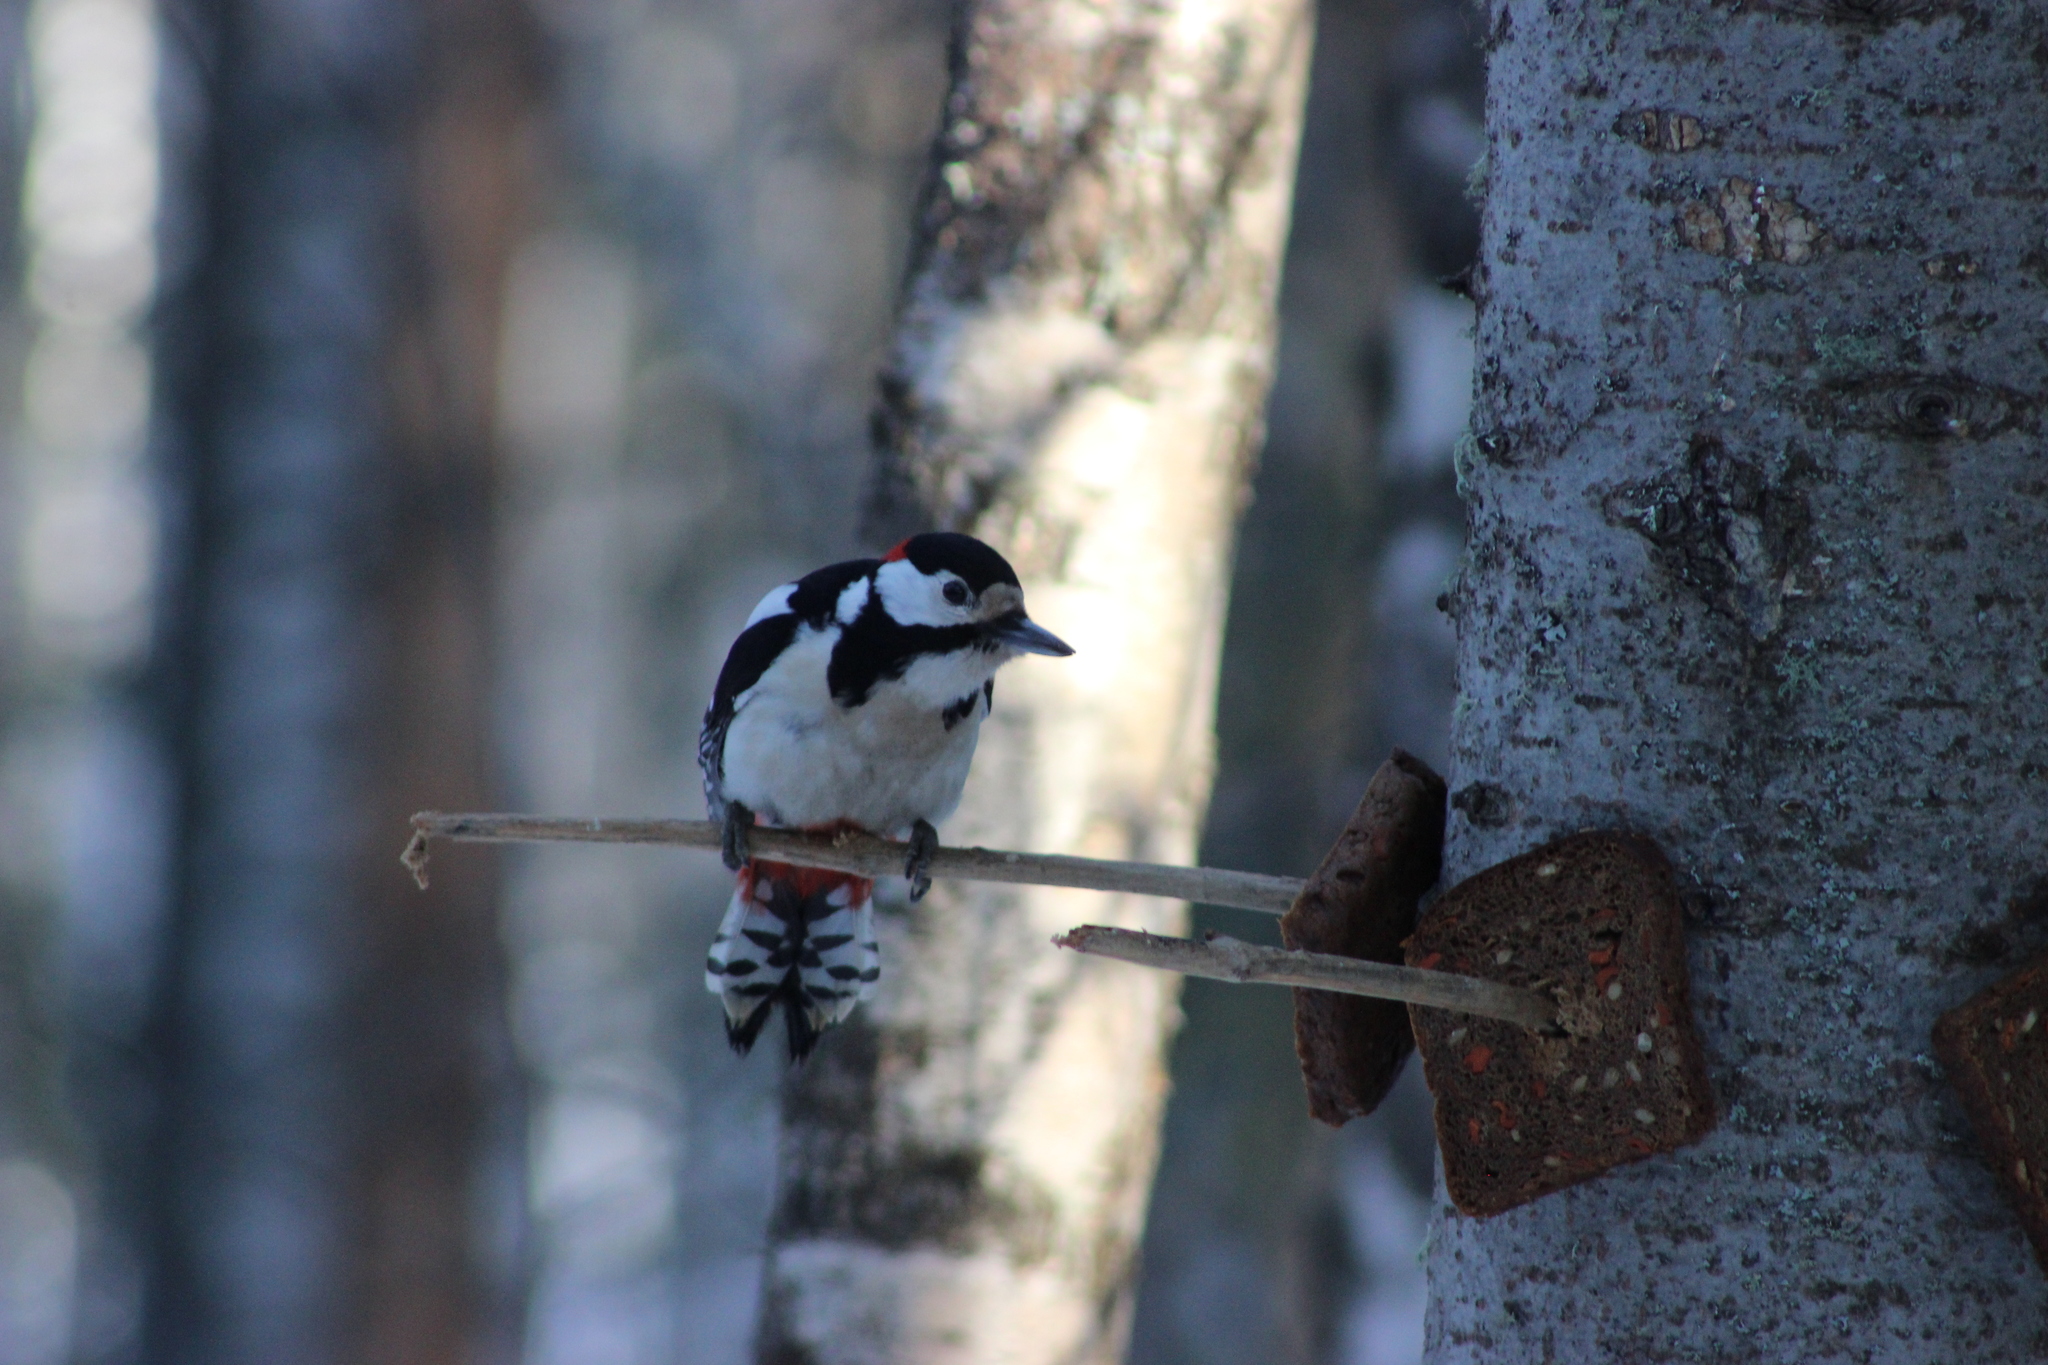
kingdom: Animalia
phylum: Chordata
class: Aves
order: Piciformes
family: Picidae
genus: Dendrocopos
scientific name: Dendrocopos major
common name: Great spotted woodpecker
